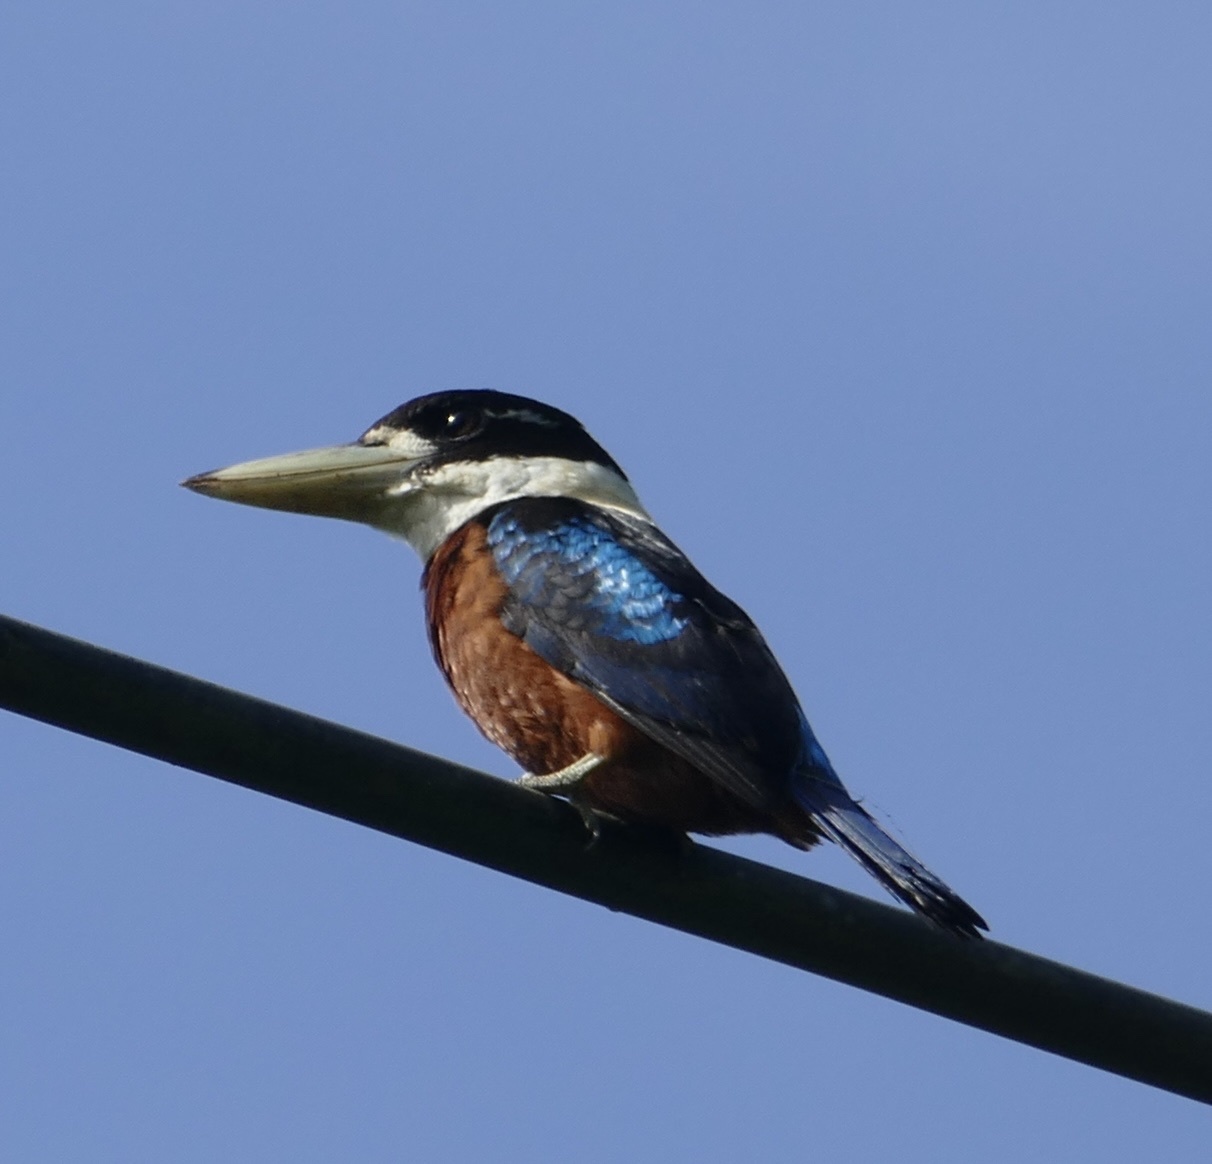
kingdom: Animalia
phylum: Chordata
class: Aves
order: Coraciiformes
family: Alcedinidae
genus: Dacelo
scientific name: Dacelo gaudichaud
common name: Rufous-bellied kookaburra
